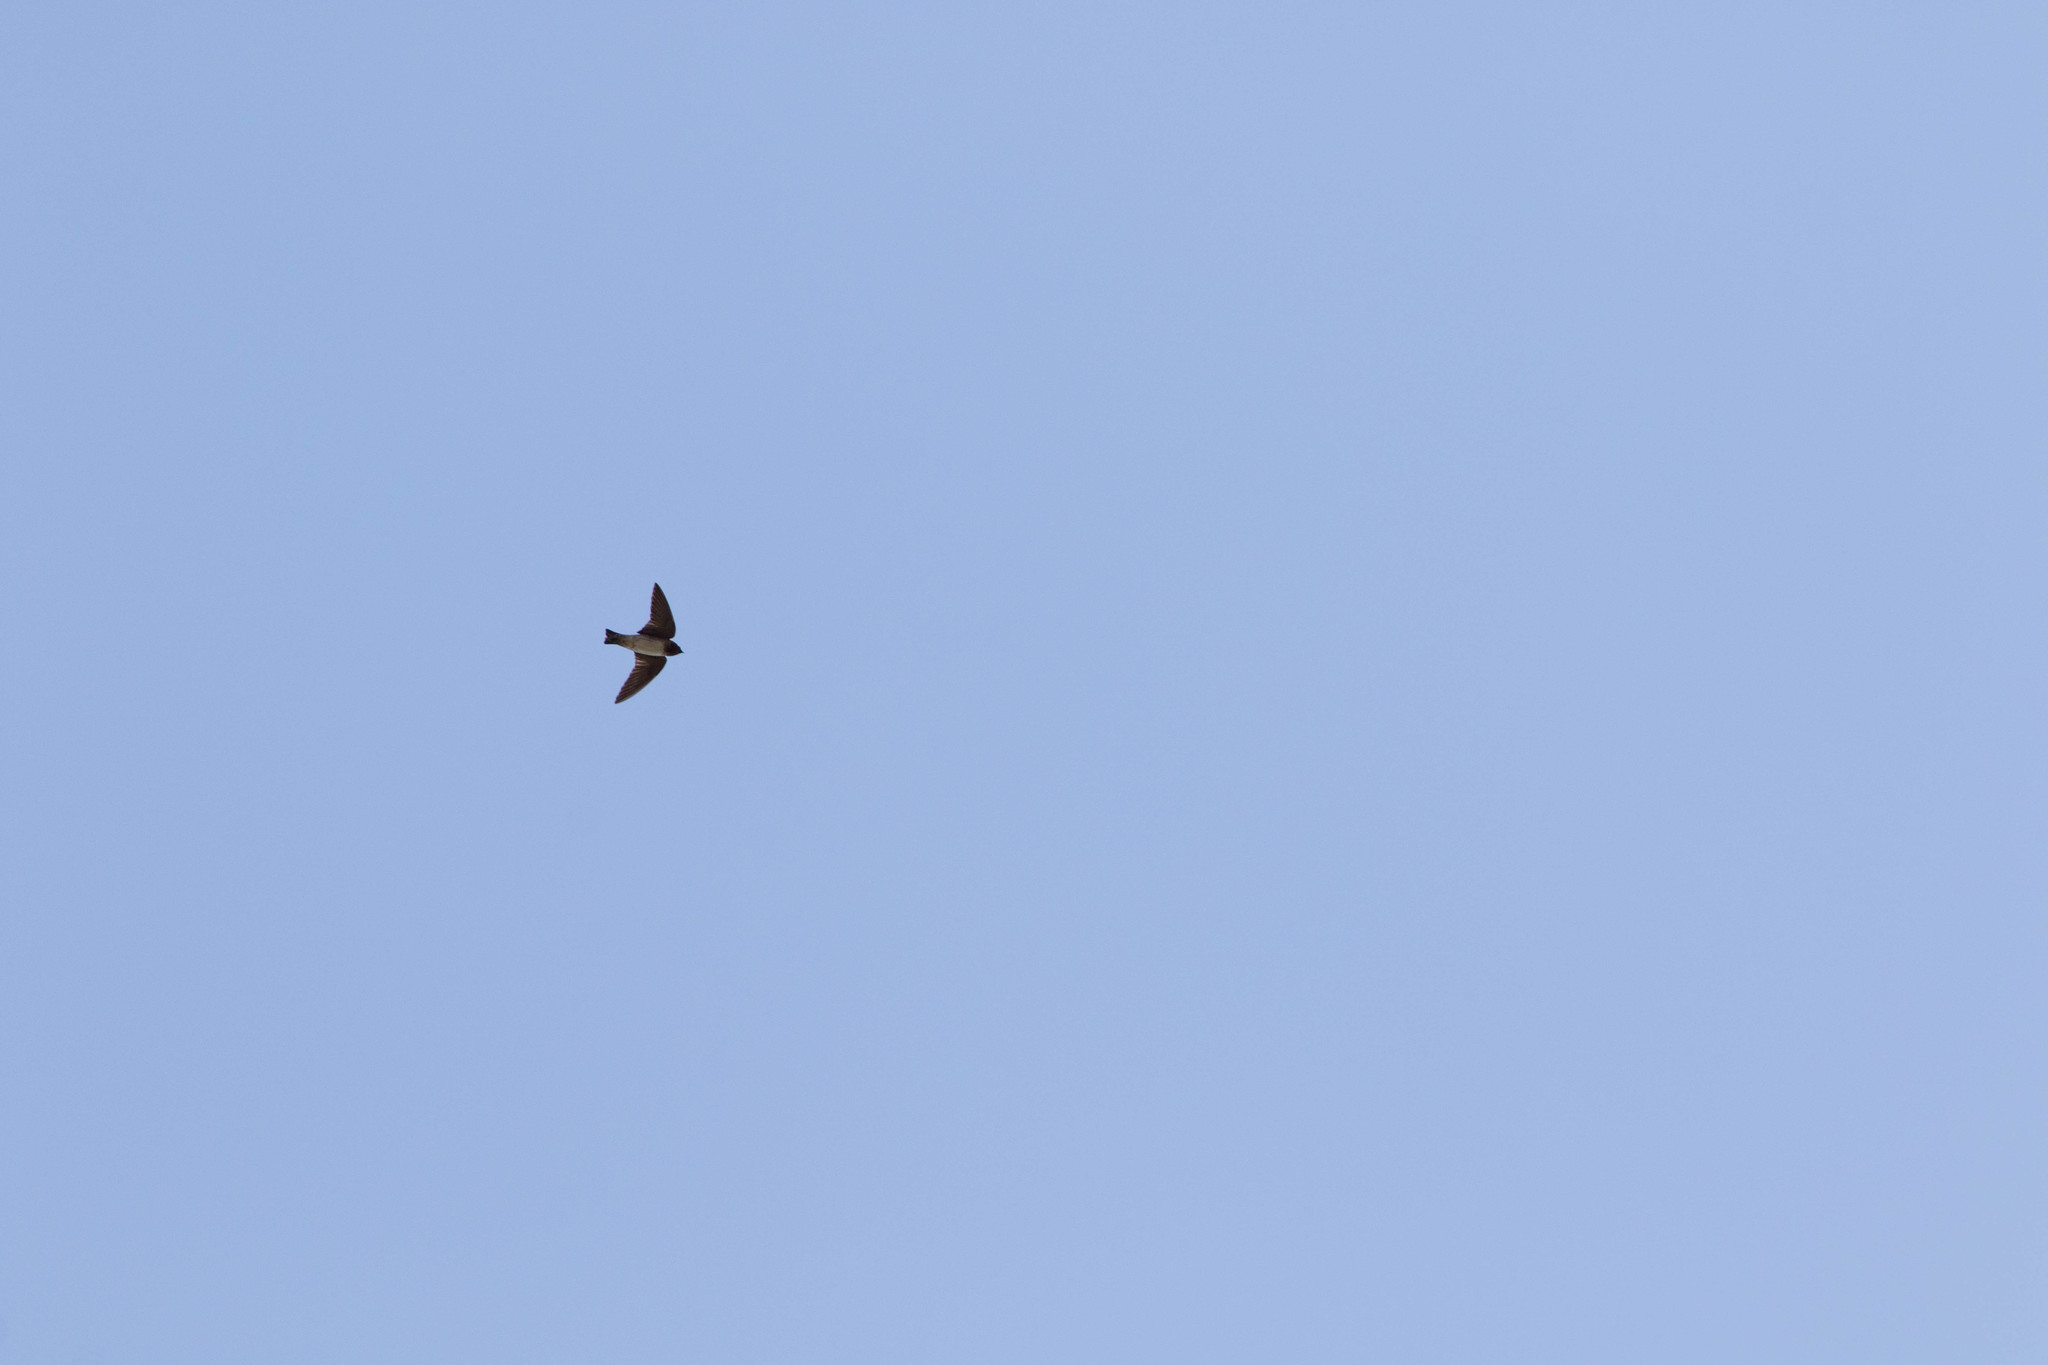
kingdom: Animalia
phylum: Chordata
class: Aves
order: Passeriformes
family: Hirundinidae
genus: Petrochelidon
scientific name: Petrochelidon pyrrhonota
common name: American cliff swallow
